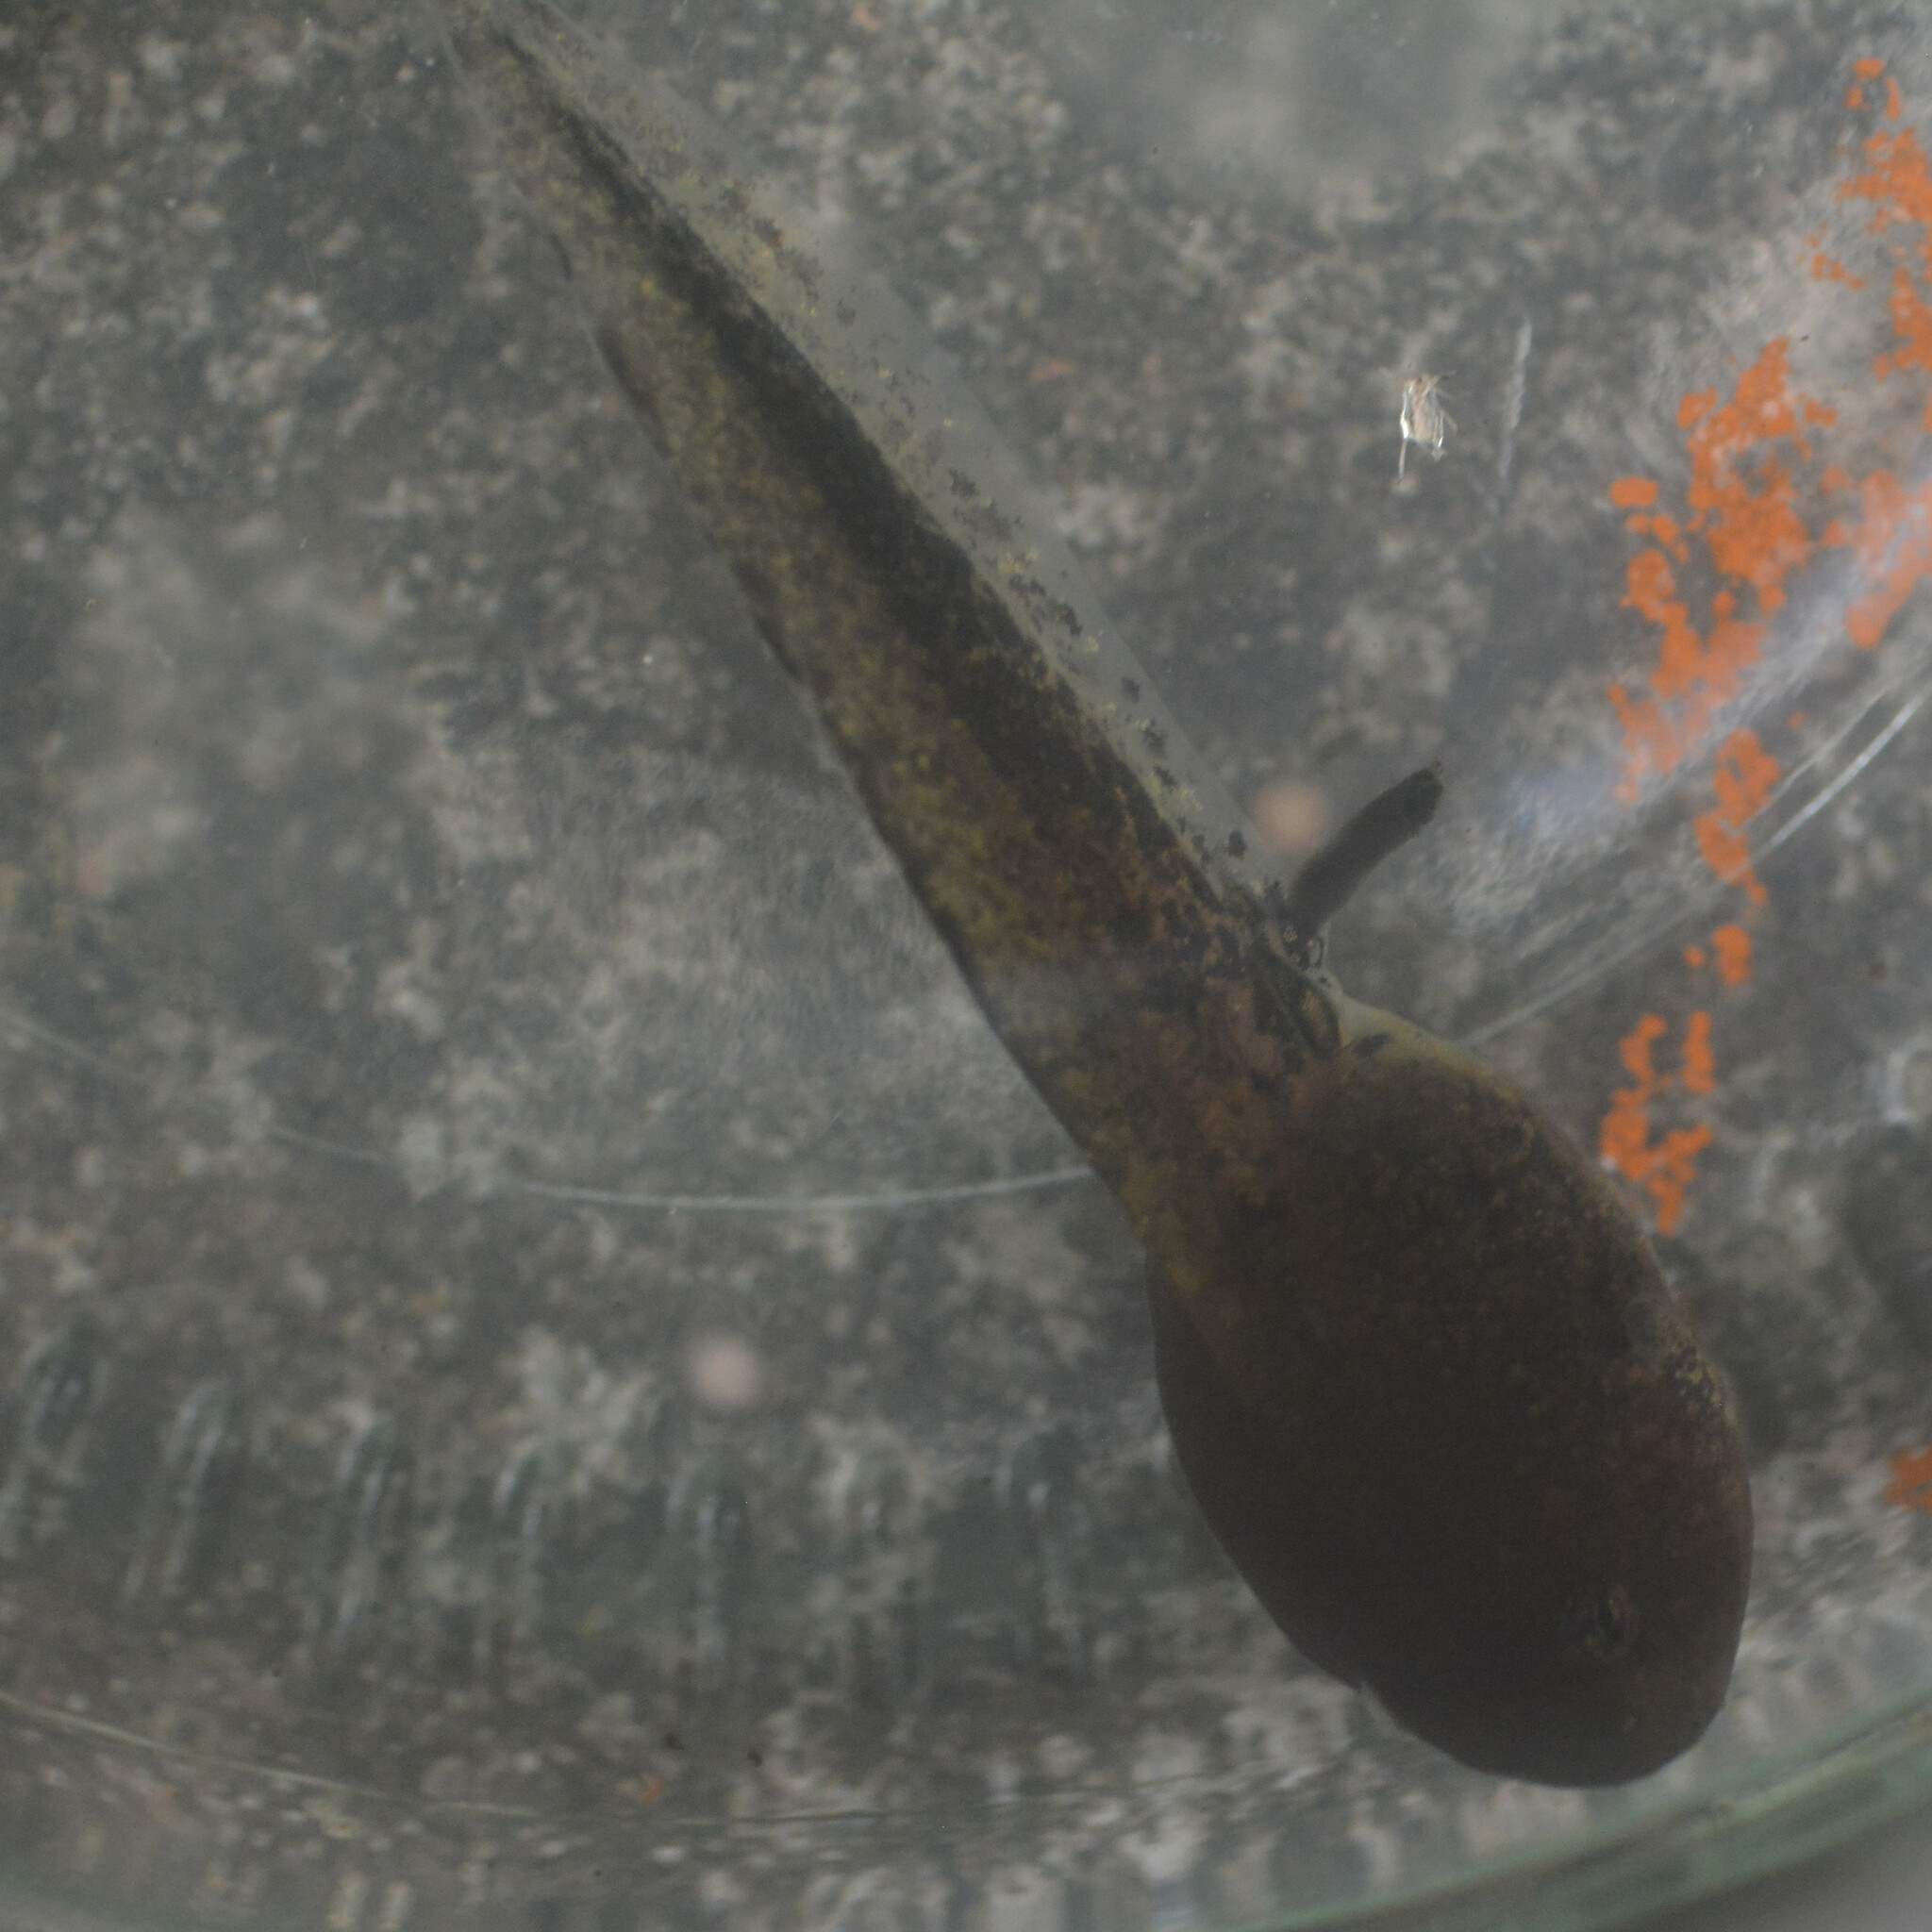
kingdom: Animalia
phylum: Chordata
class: Amphibia
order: Anura
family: Ranidae
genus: Rana
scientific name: Rana temporaria
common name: Common frog
